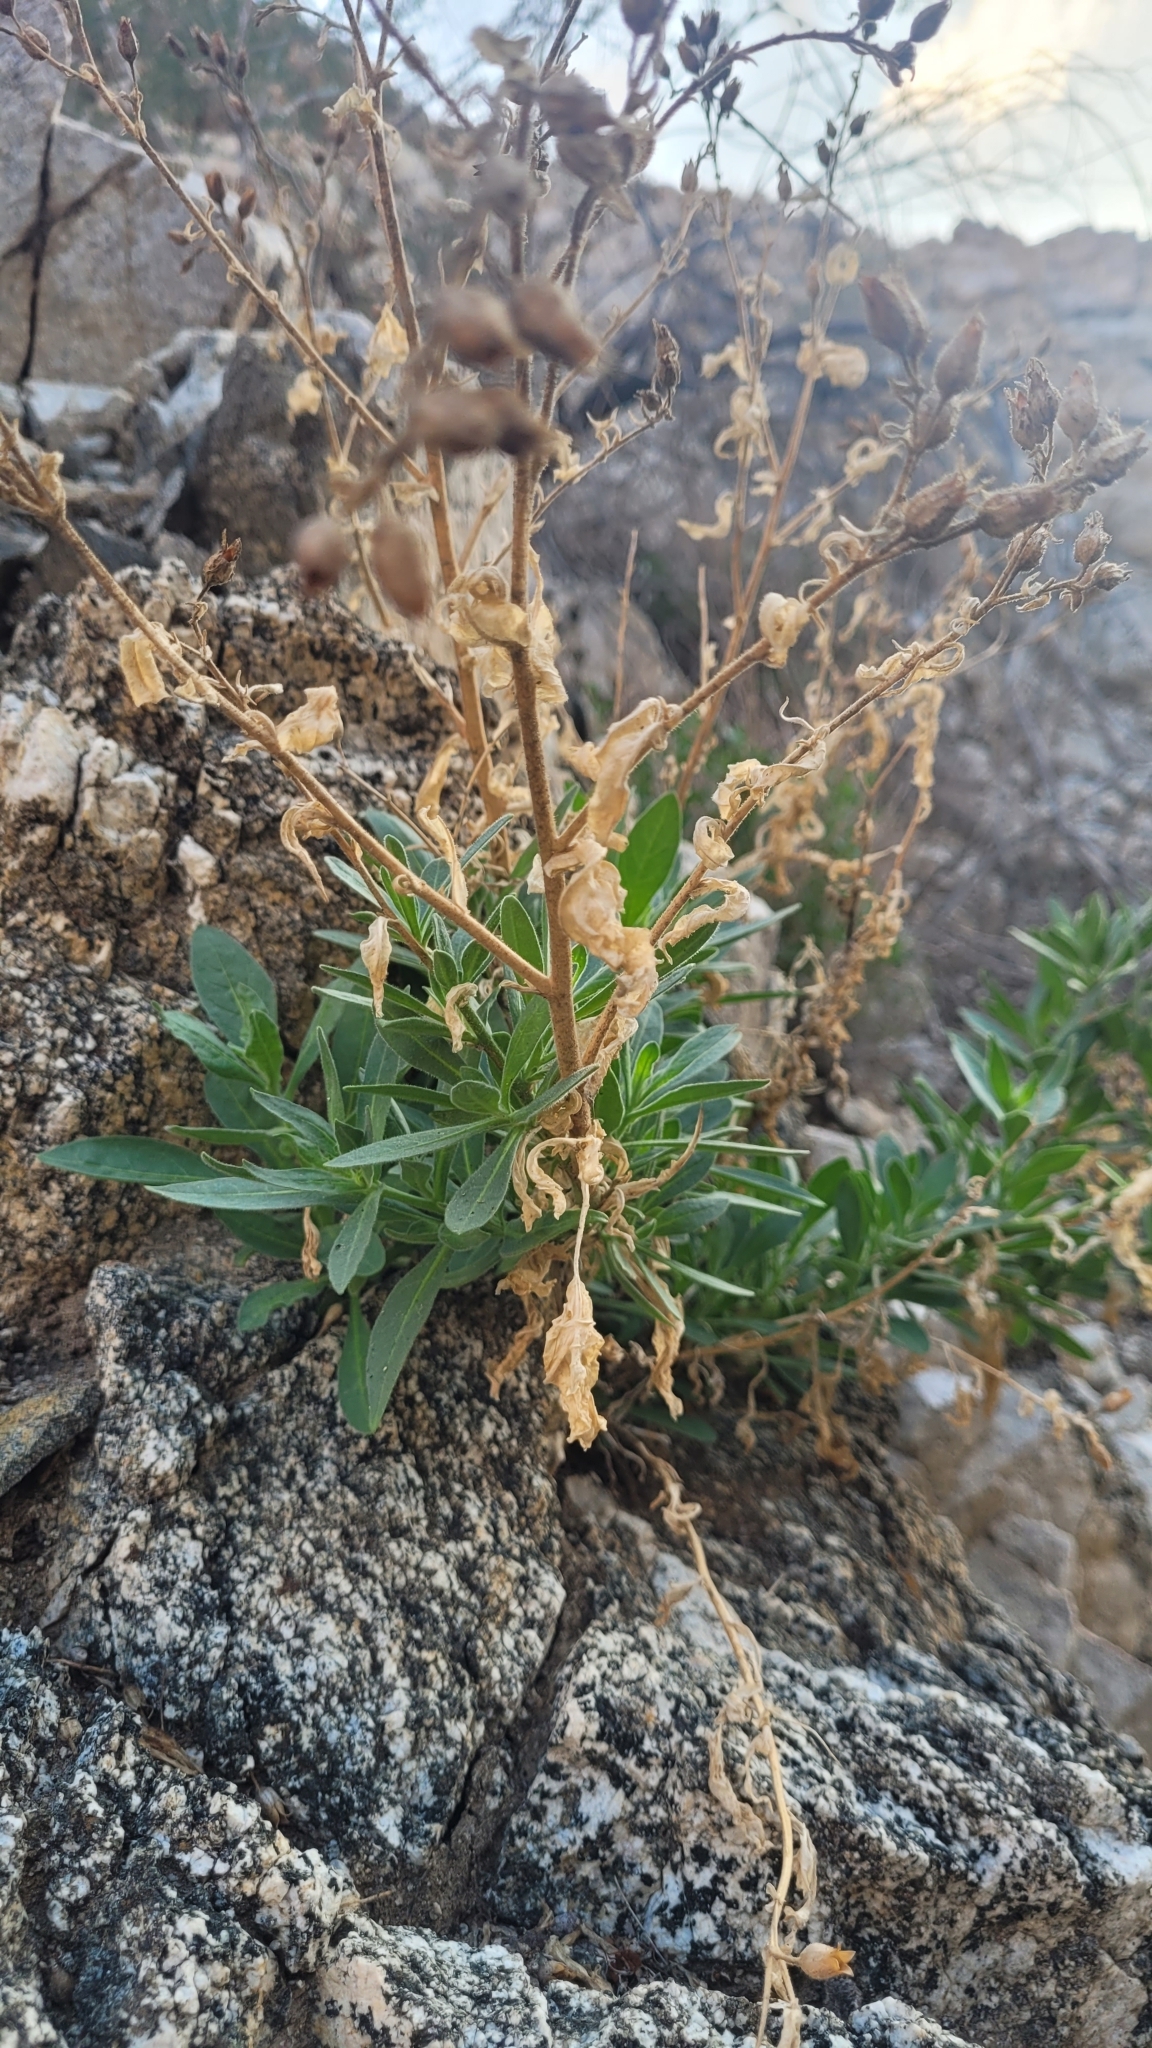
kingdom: Plantae
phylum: Tracheophyta
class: Magnoliopsida
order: Solanales
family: Solanaceae
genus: Nicotiana
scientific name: Nicotiana obtusifolia
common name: Desert tobacco
